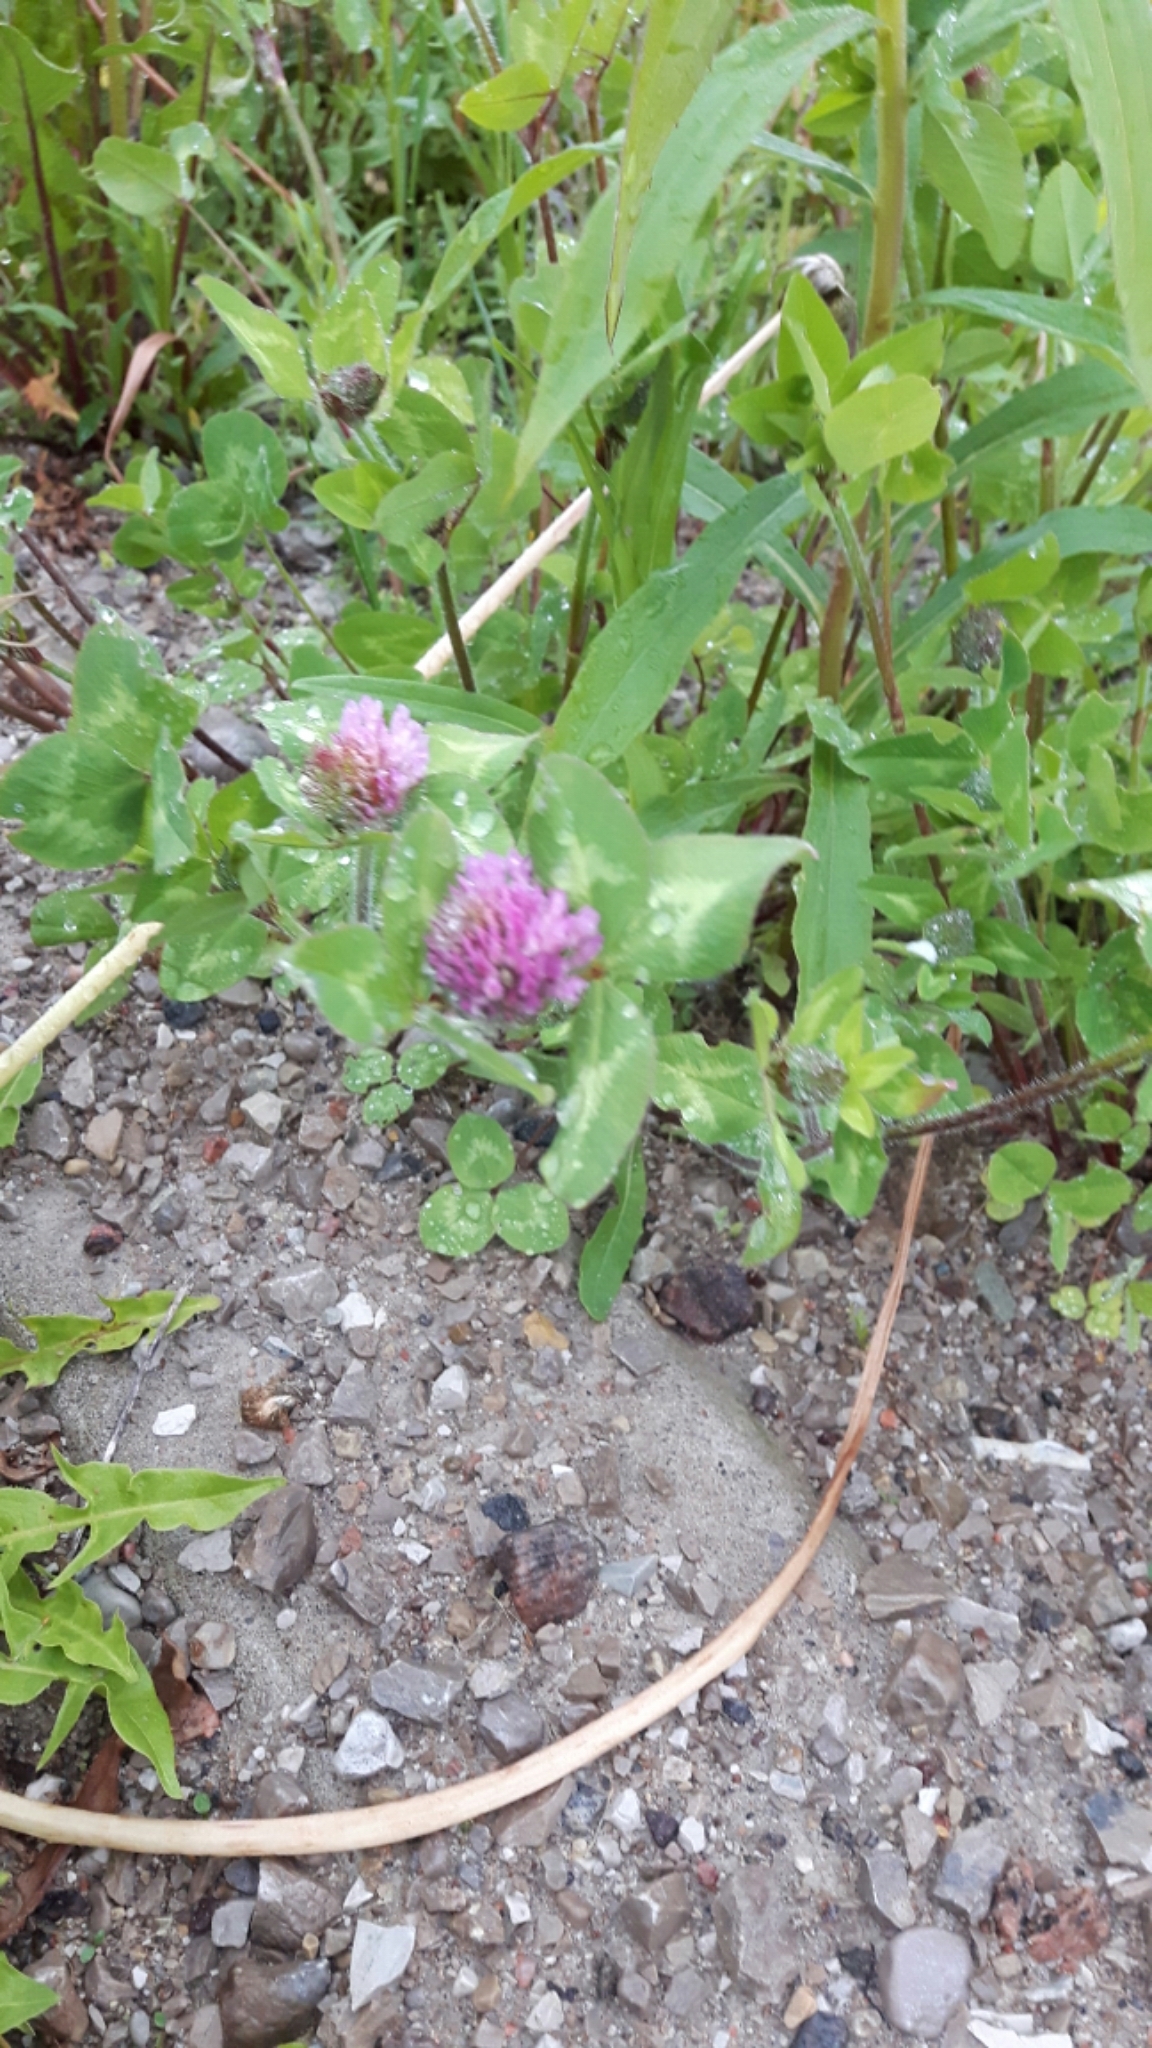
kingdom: Plantae
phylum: Tracheophyta
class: Magnoliopsida
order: Fabales
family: Fabaceae
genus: Trifolium
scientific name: Trifolium pratense
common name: Red clover
